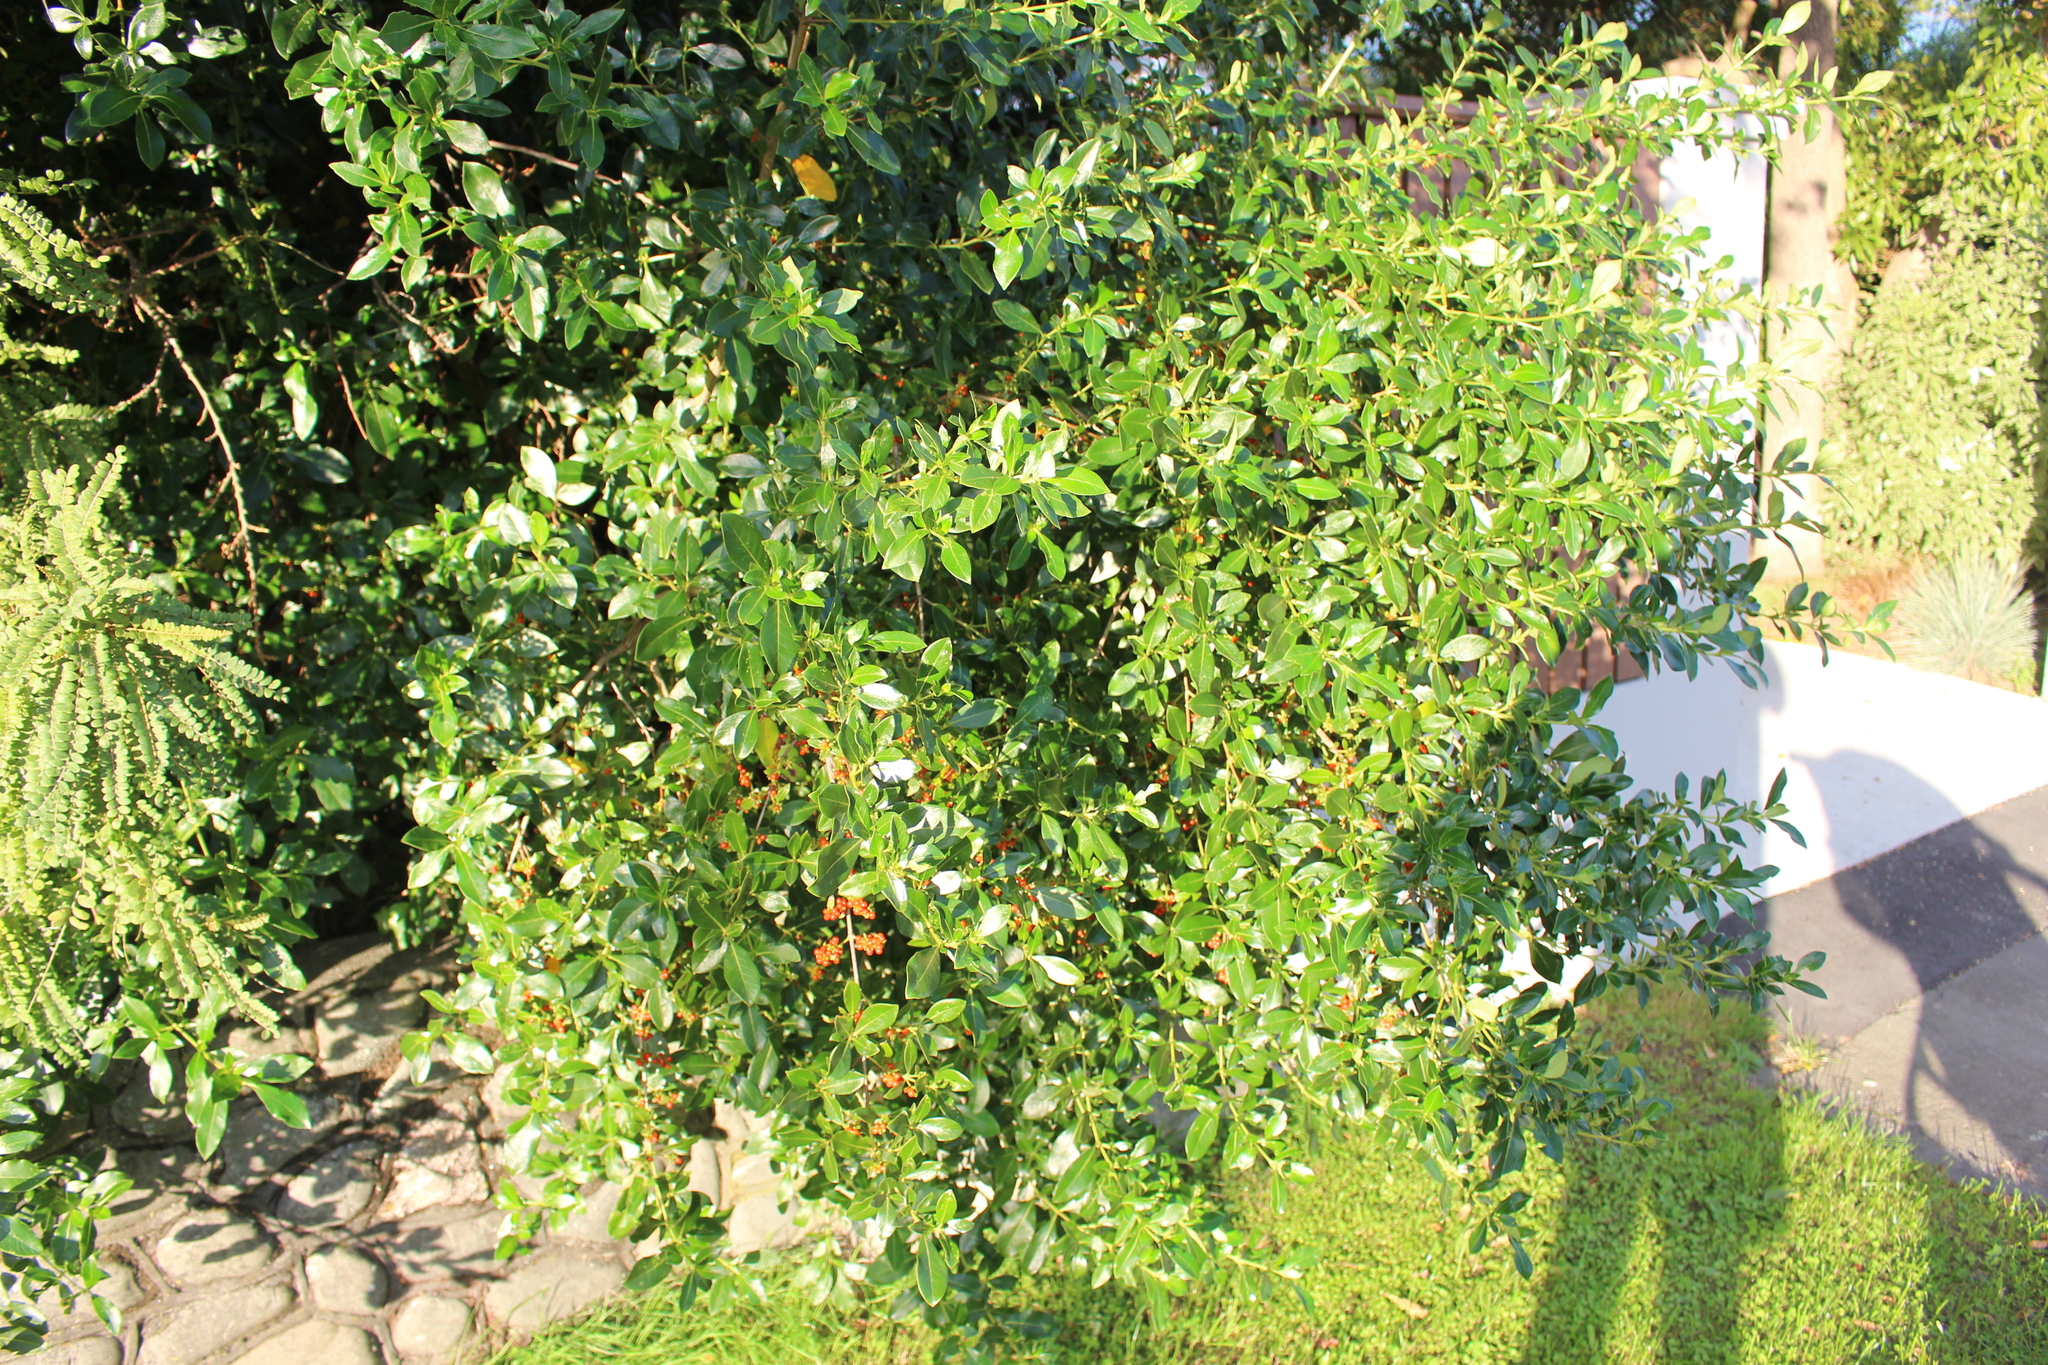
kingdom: Plantae
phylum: Tracheophyta
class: Magnoliopsida
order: Gentianales
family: Rubiaceae
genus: Coprosma
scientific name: Coprosma robusta
